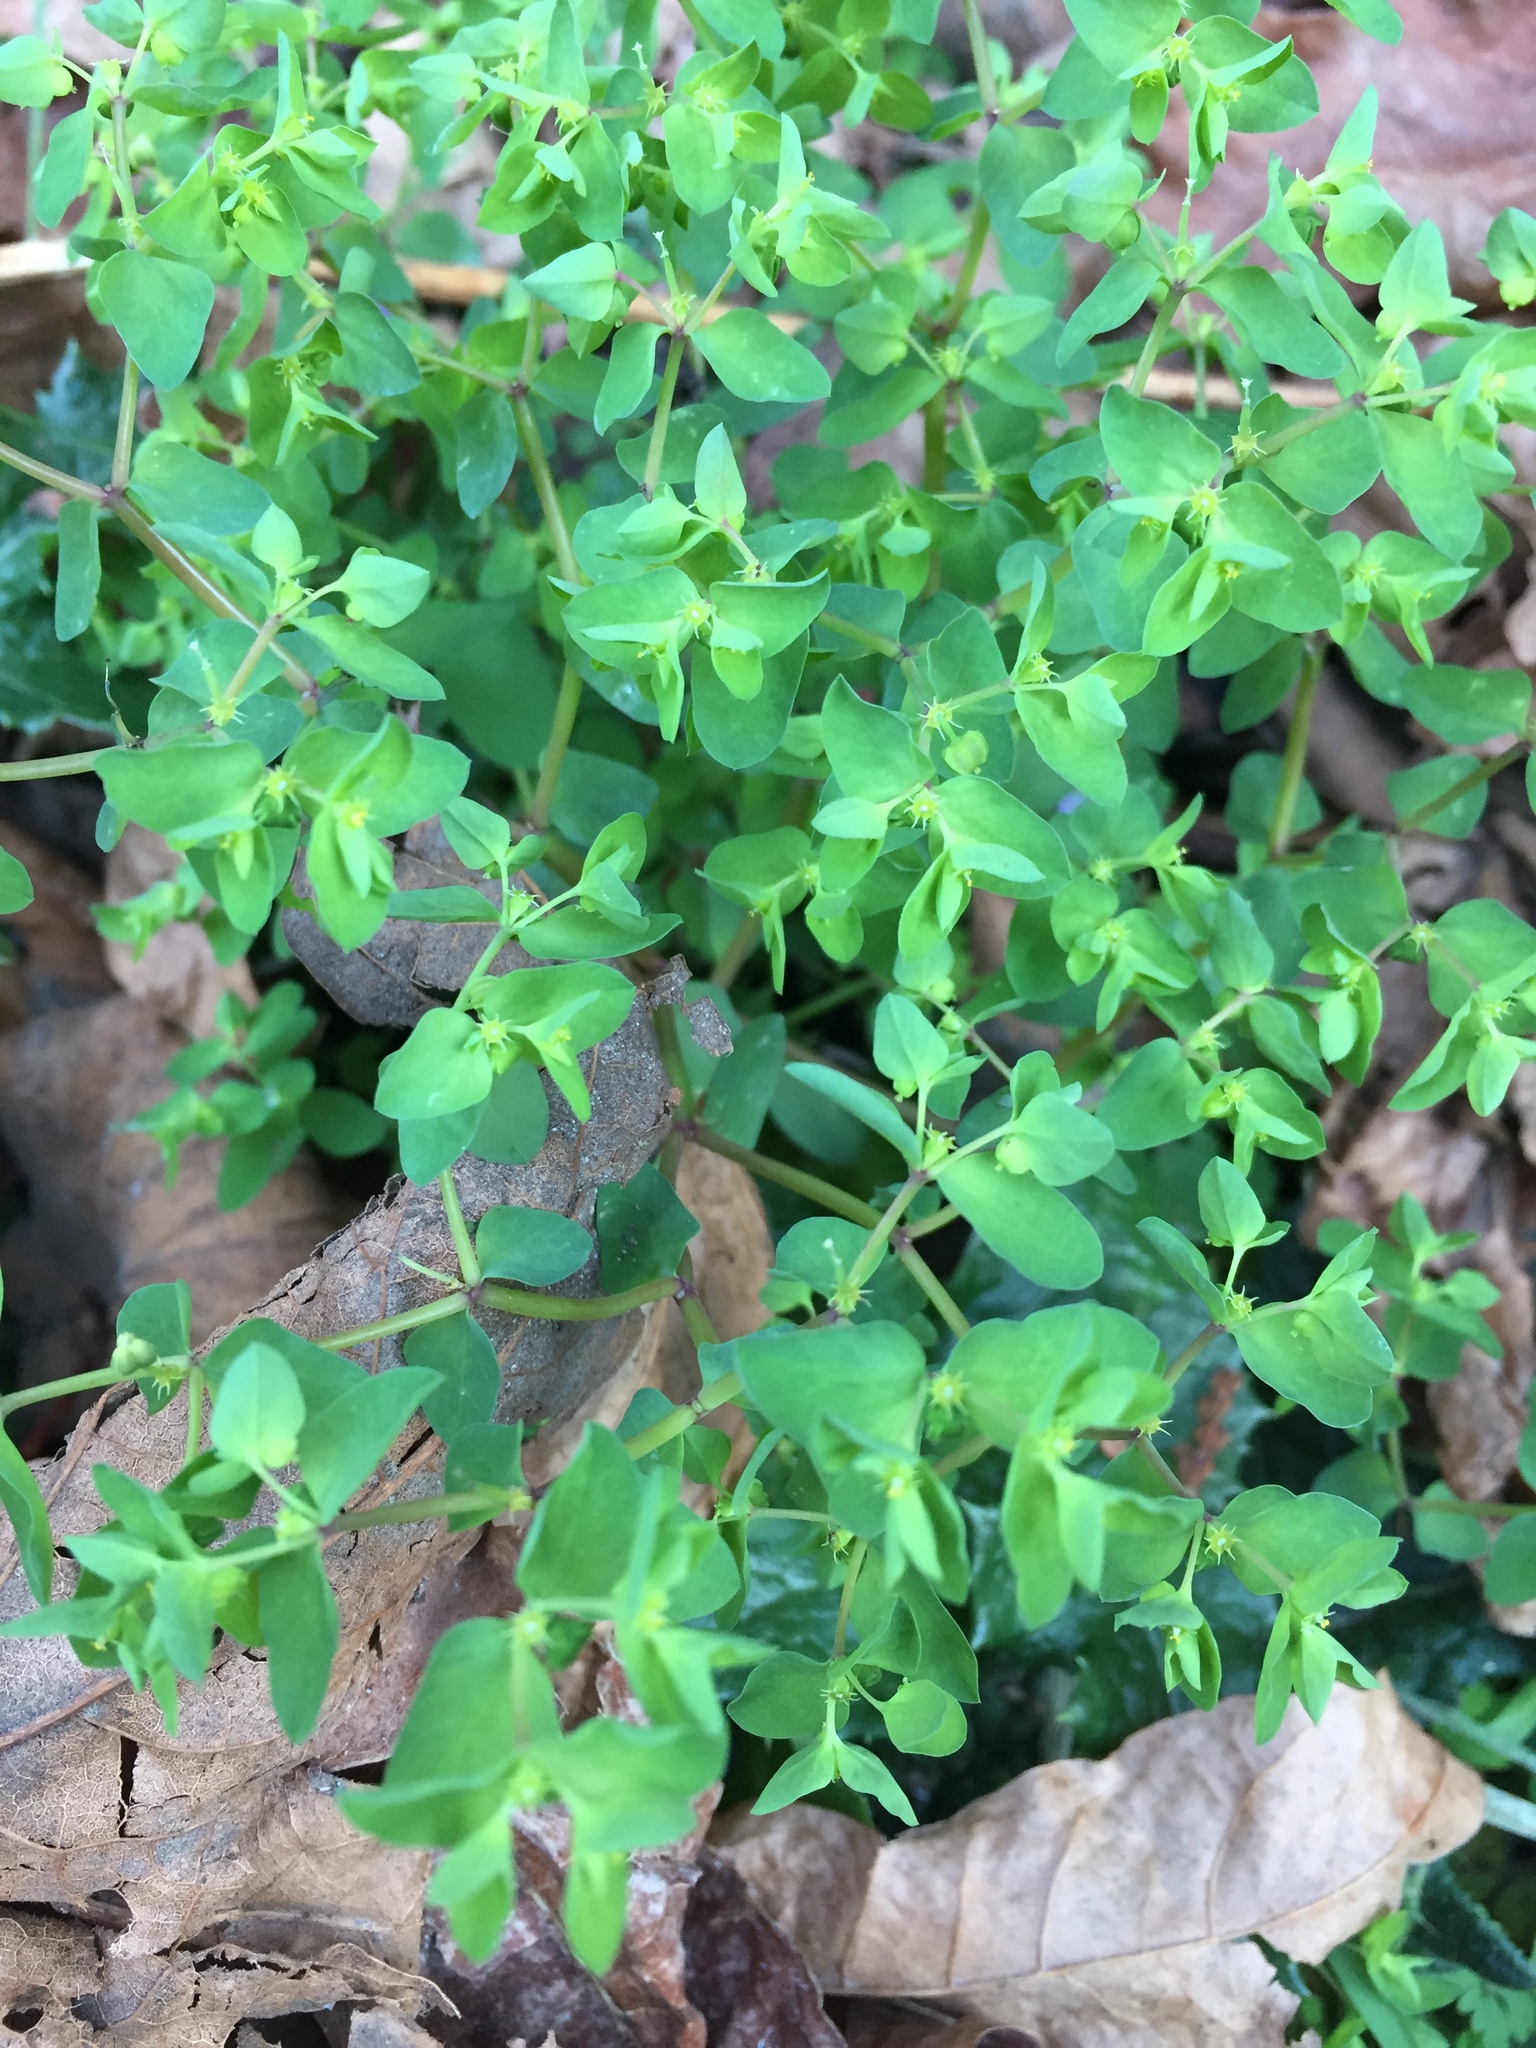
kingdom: Plantae
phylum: Tracheophyta
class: Magnoliopsida
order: Malpighiales
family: Euphorbiaceae
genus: Euphorbia
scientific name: Euphorbia peplus
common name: Petty spurge
